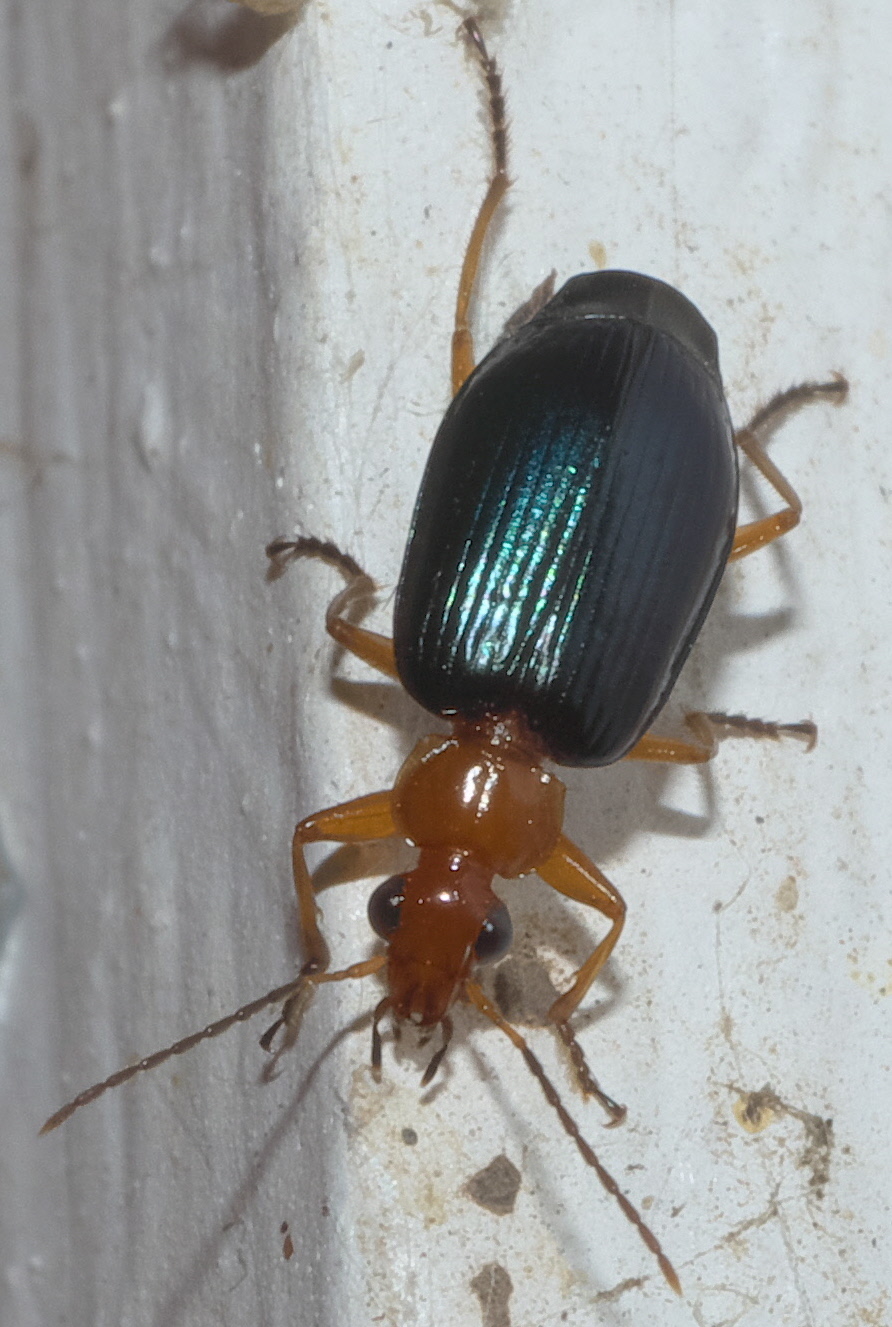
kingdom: Animalia
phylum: Arthropoda
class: Insecta
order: Coleoptera
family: Carabidae
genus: Lebia
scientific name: Lebia grandis
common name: Large foliage ground beetle
